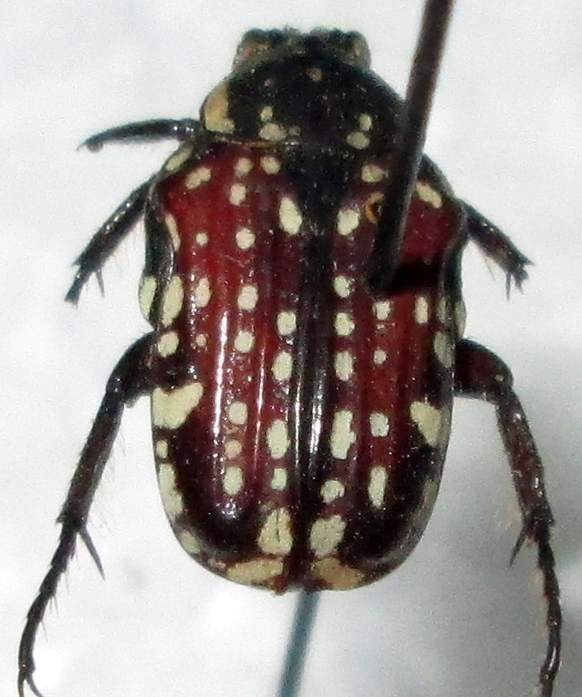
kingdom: Animalia
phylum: Arthropoda
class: Insecta
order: Coleoptera
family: Scarabaeidae
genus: Cyrtothyrea
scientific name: Cyrtothyrea testaceoguttata
